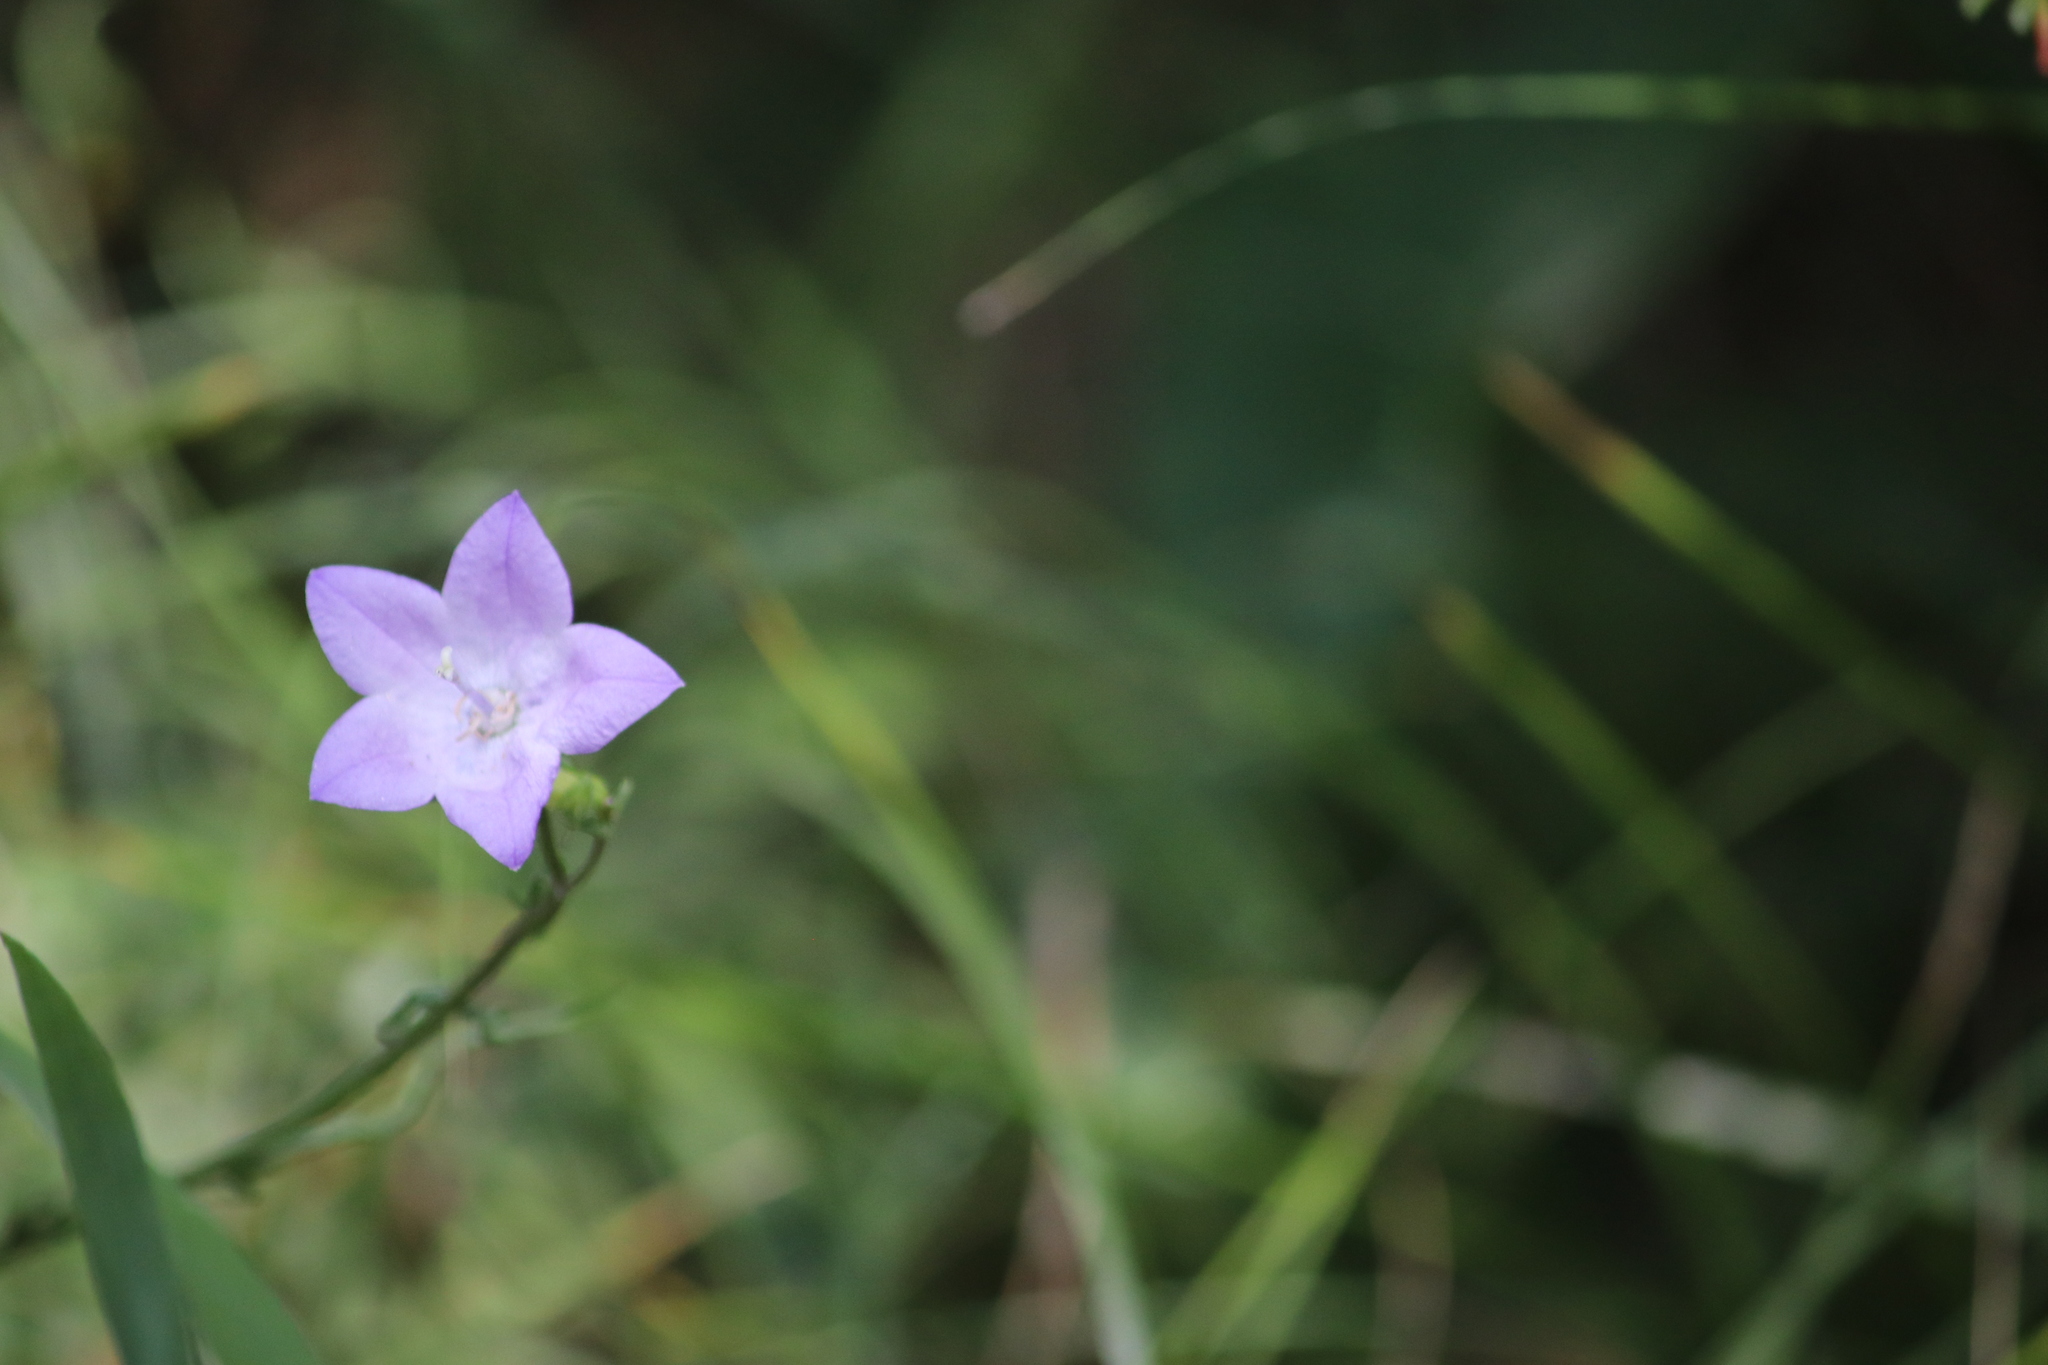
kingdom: Plantae
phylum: Tracheophyta
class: Magnoliopsida
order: Asterales
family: Campanulaceae
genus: Campanula
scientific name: Campanula petiolata
